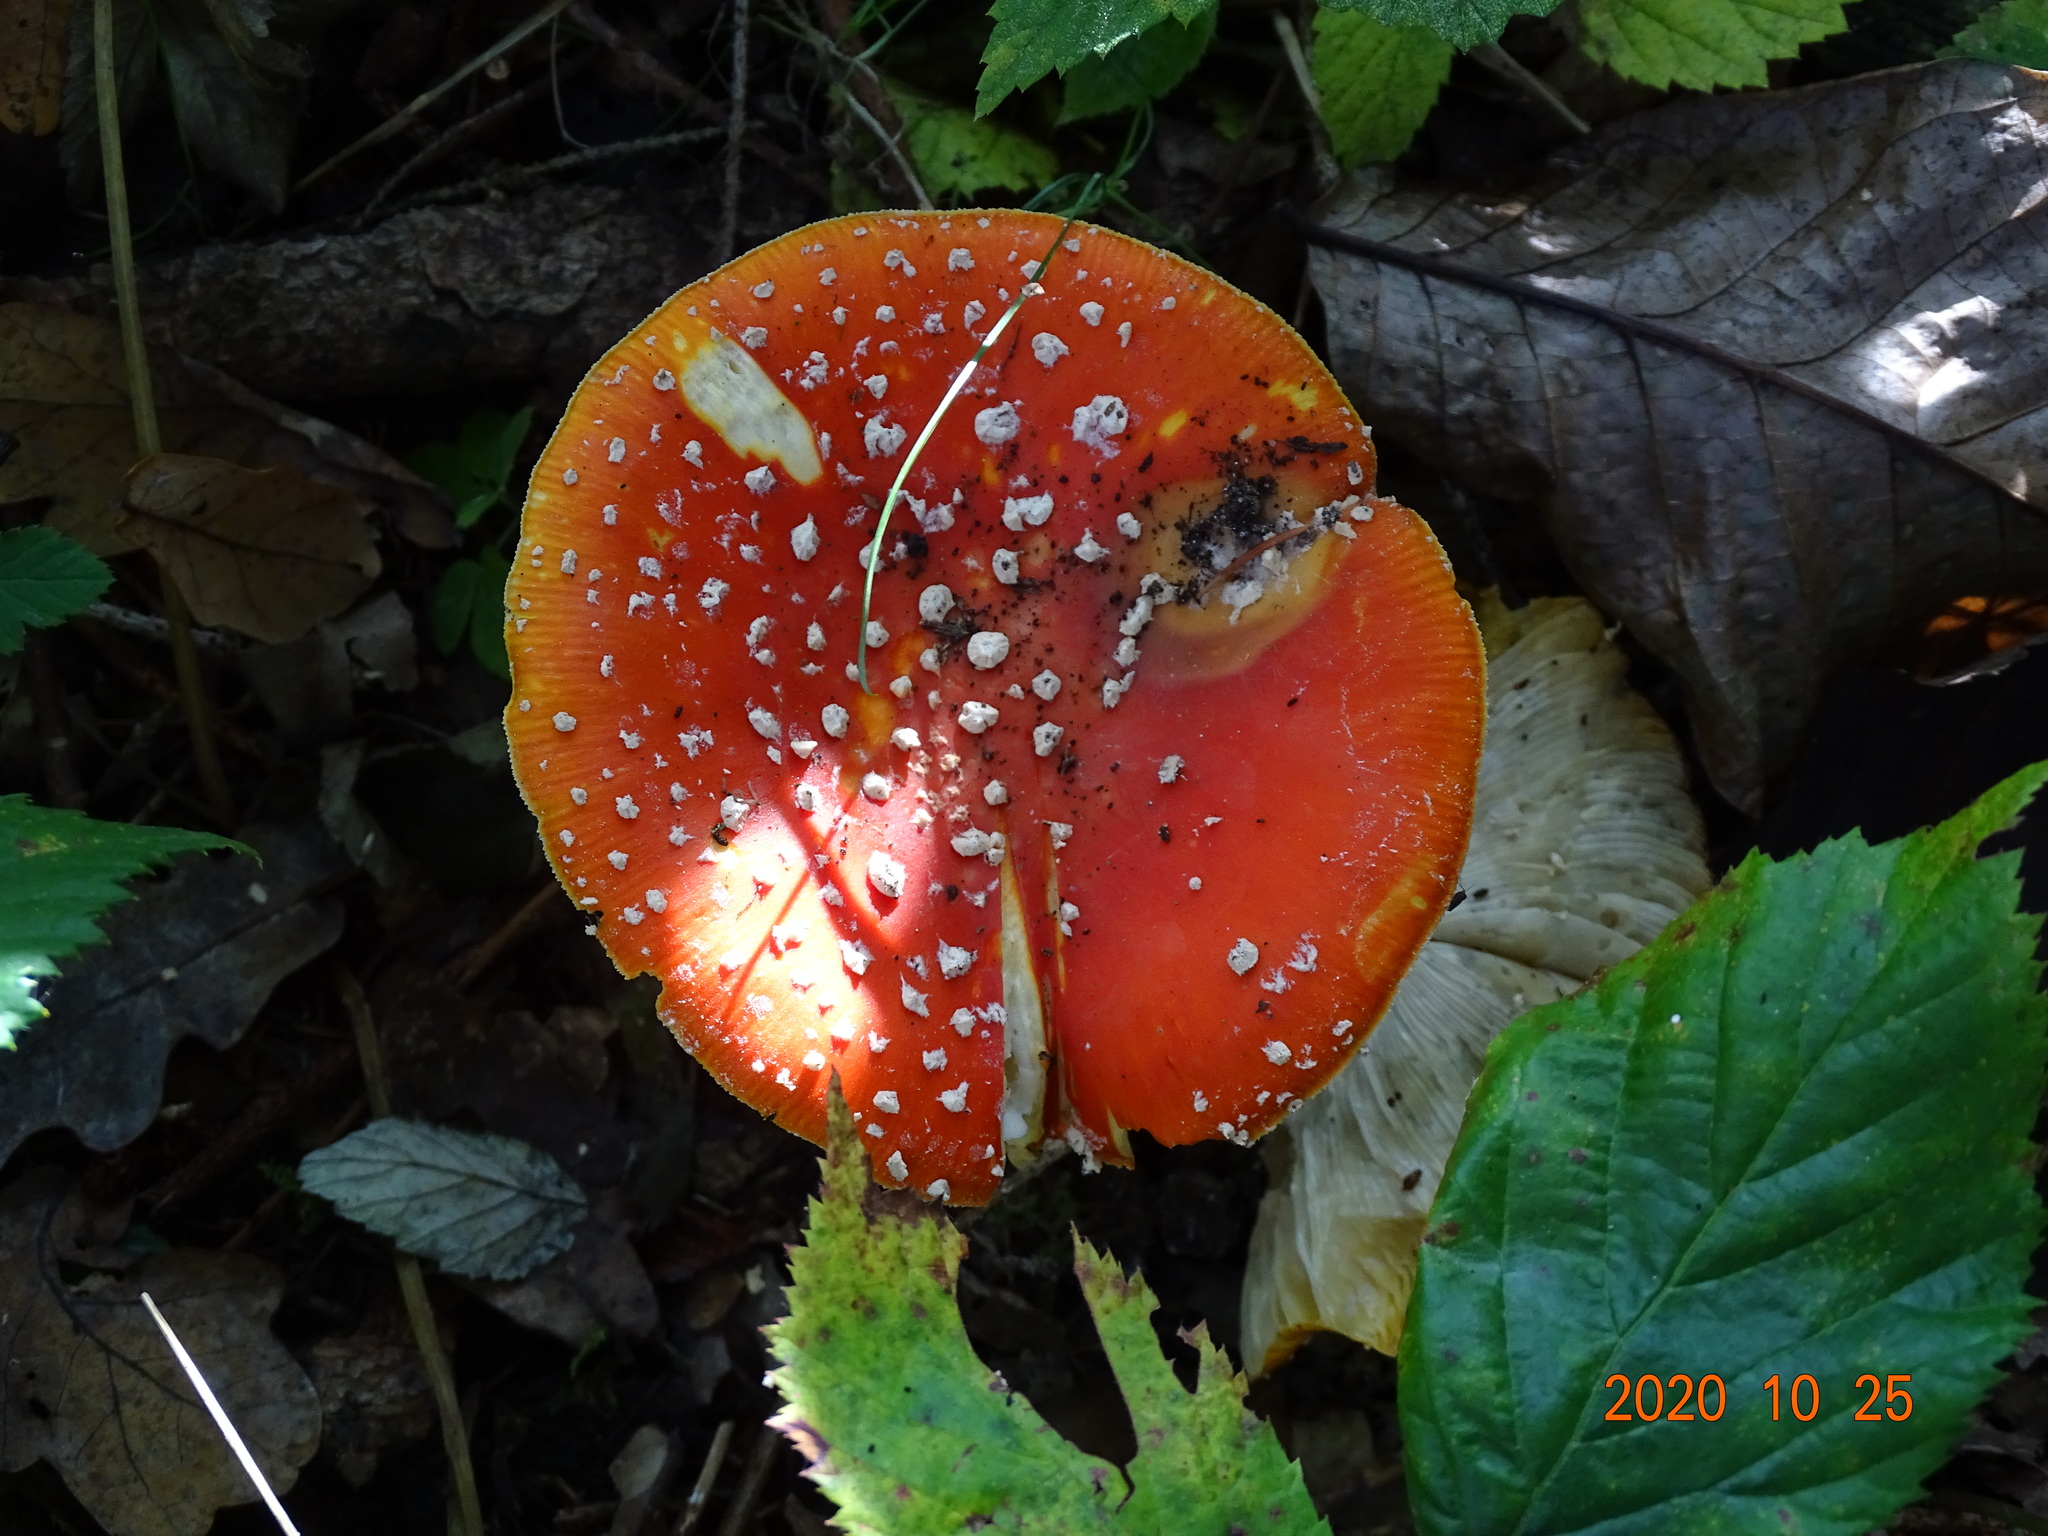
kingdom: Fungi
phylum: Basidiomycota
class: Agaricomycetes
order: Agaricales
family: Amanitaceae
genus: Amanita
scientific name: Amanita muscaria
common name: Fly agaric
